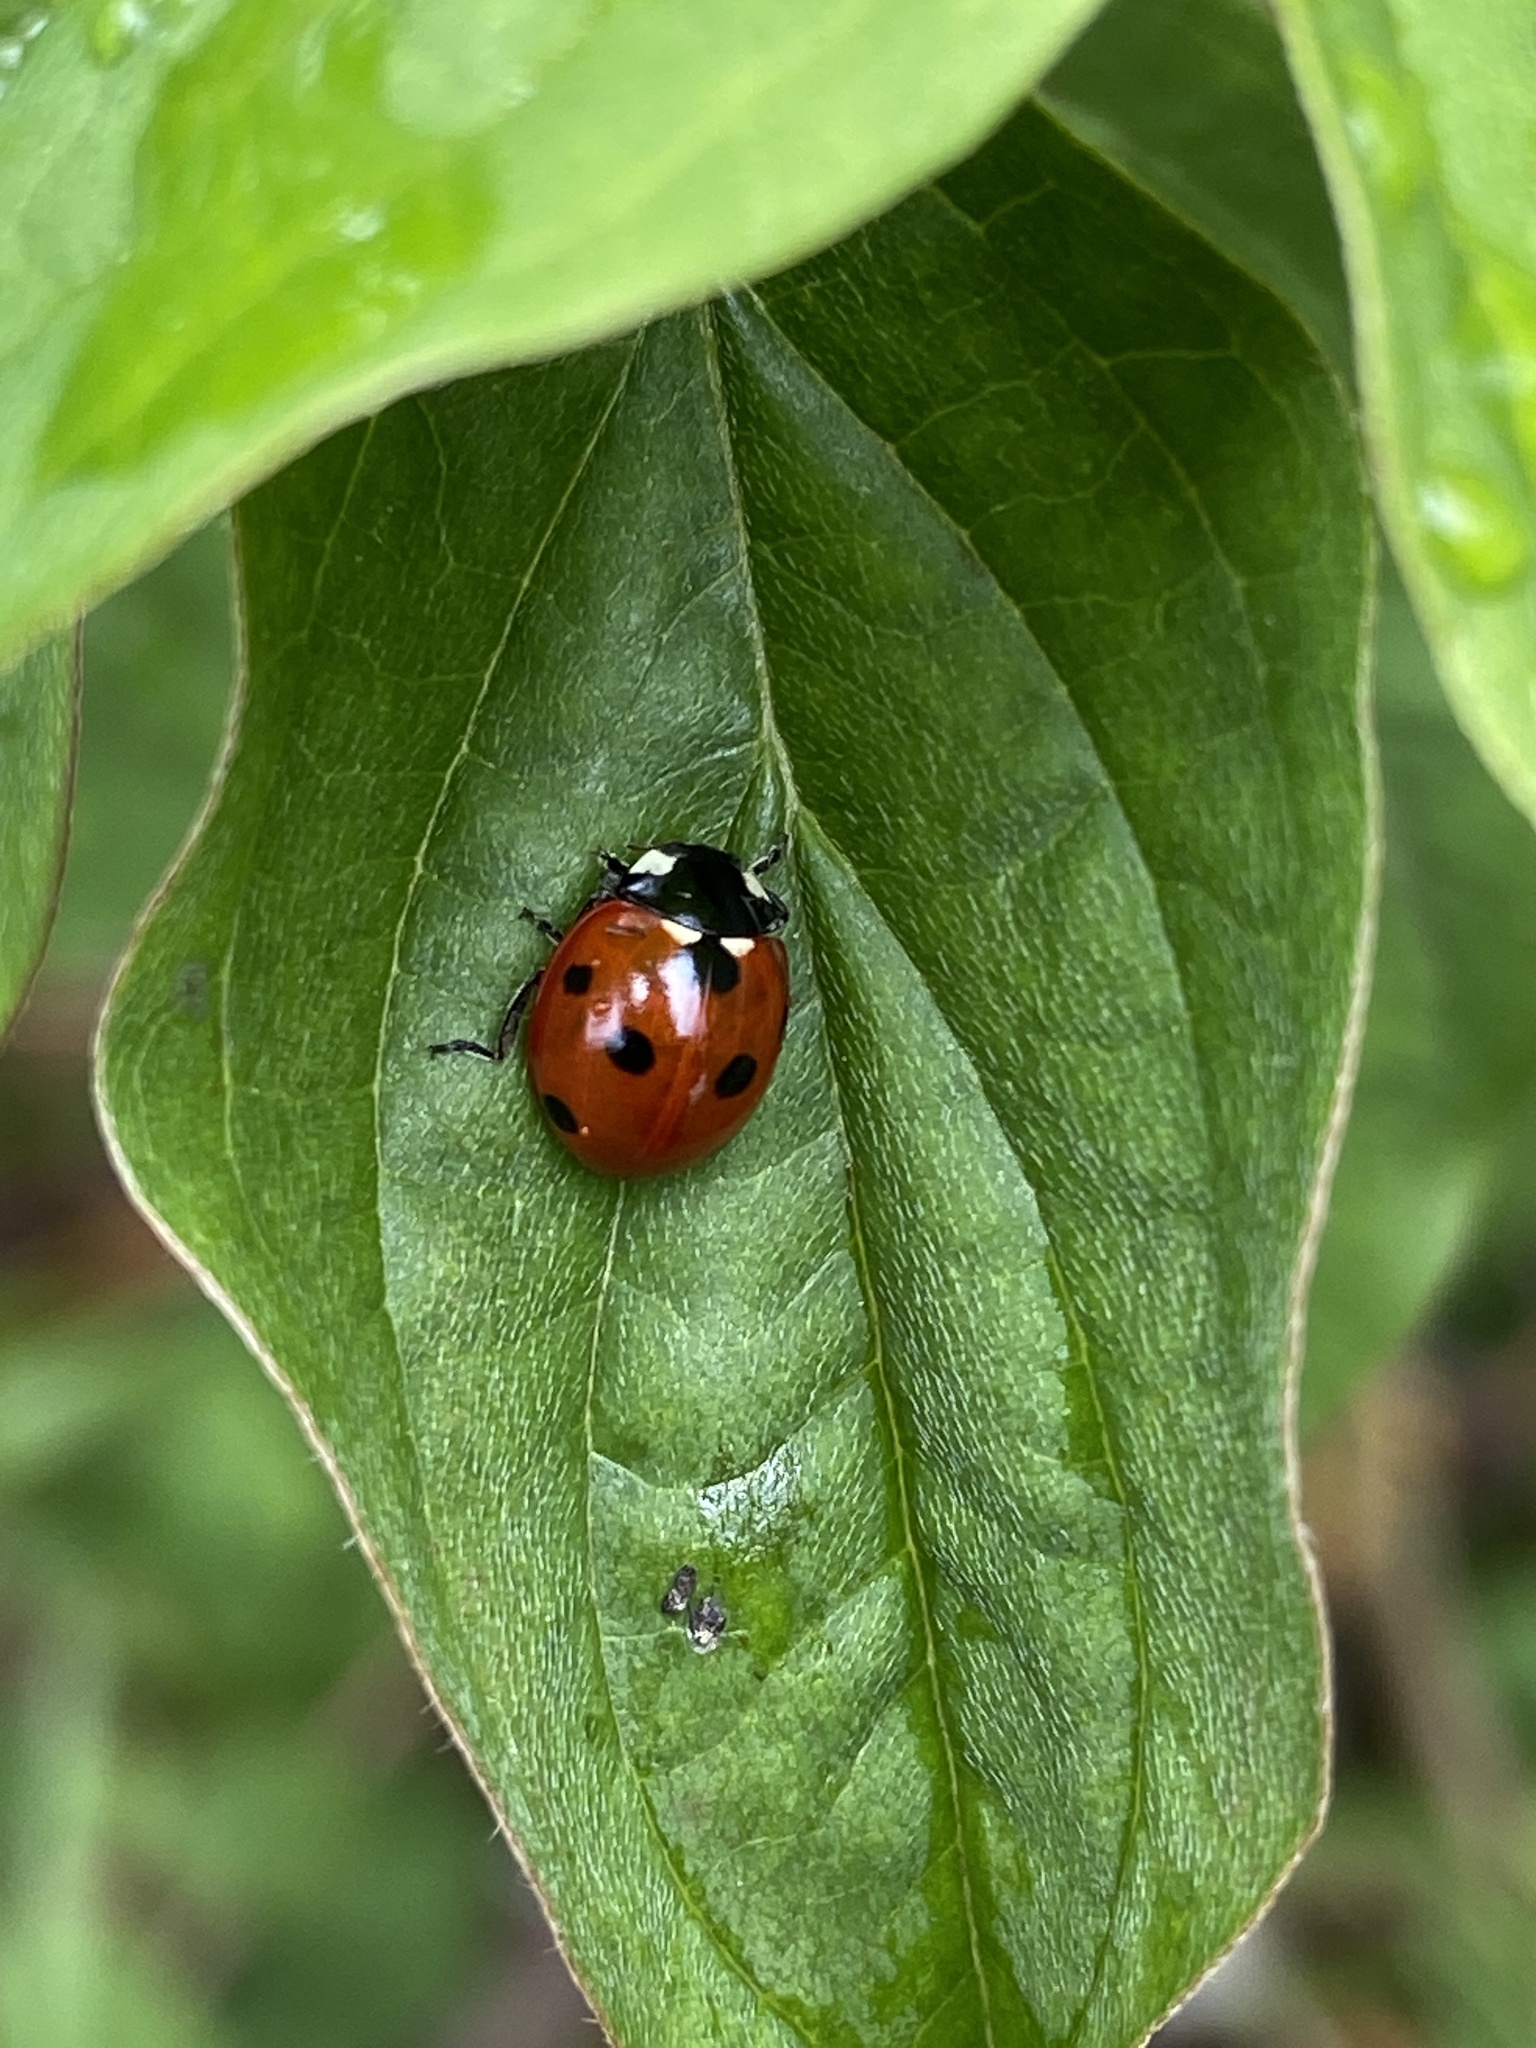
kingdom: Animalia
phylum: Arthropoda
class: Insecta
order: Coleoptera
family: Coccinellidae
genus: Coccinella
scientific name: Coccinella septempunctata
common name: Sevenspotted lady beetle
